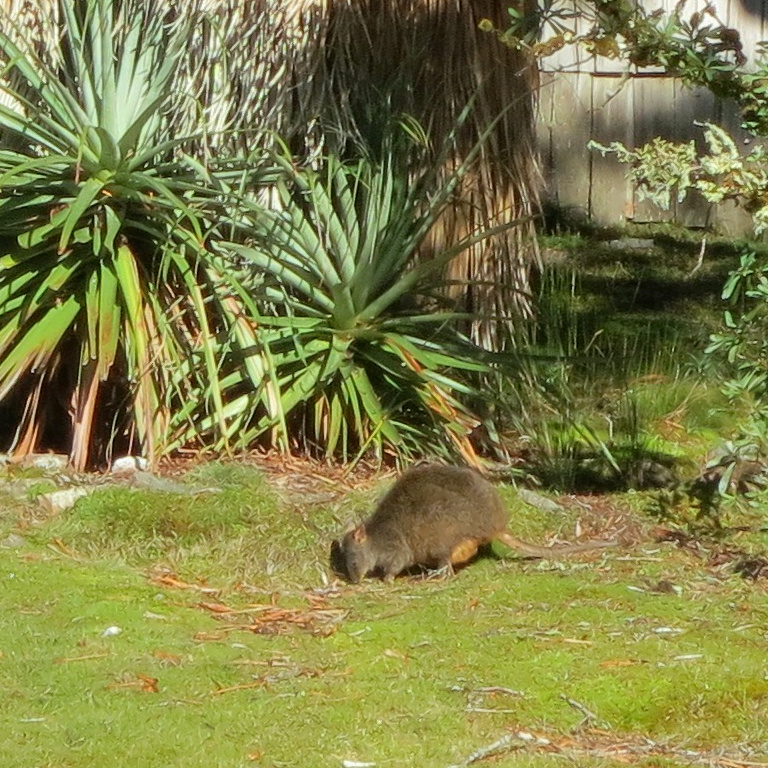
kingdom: Animalia
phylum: Chordata
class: Mammalia
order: Diprotodontia
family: Macropodidae
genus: Thylogale
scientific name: Thylogale billardierii
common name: Tasmanian pademelon
